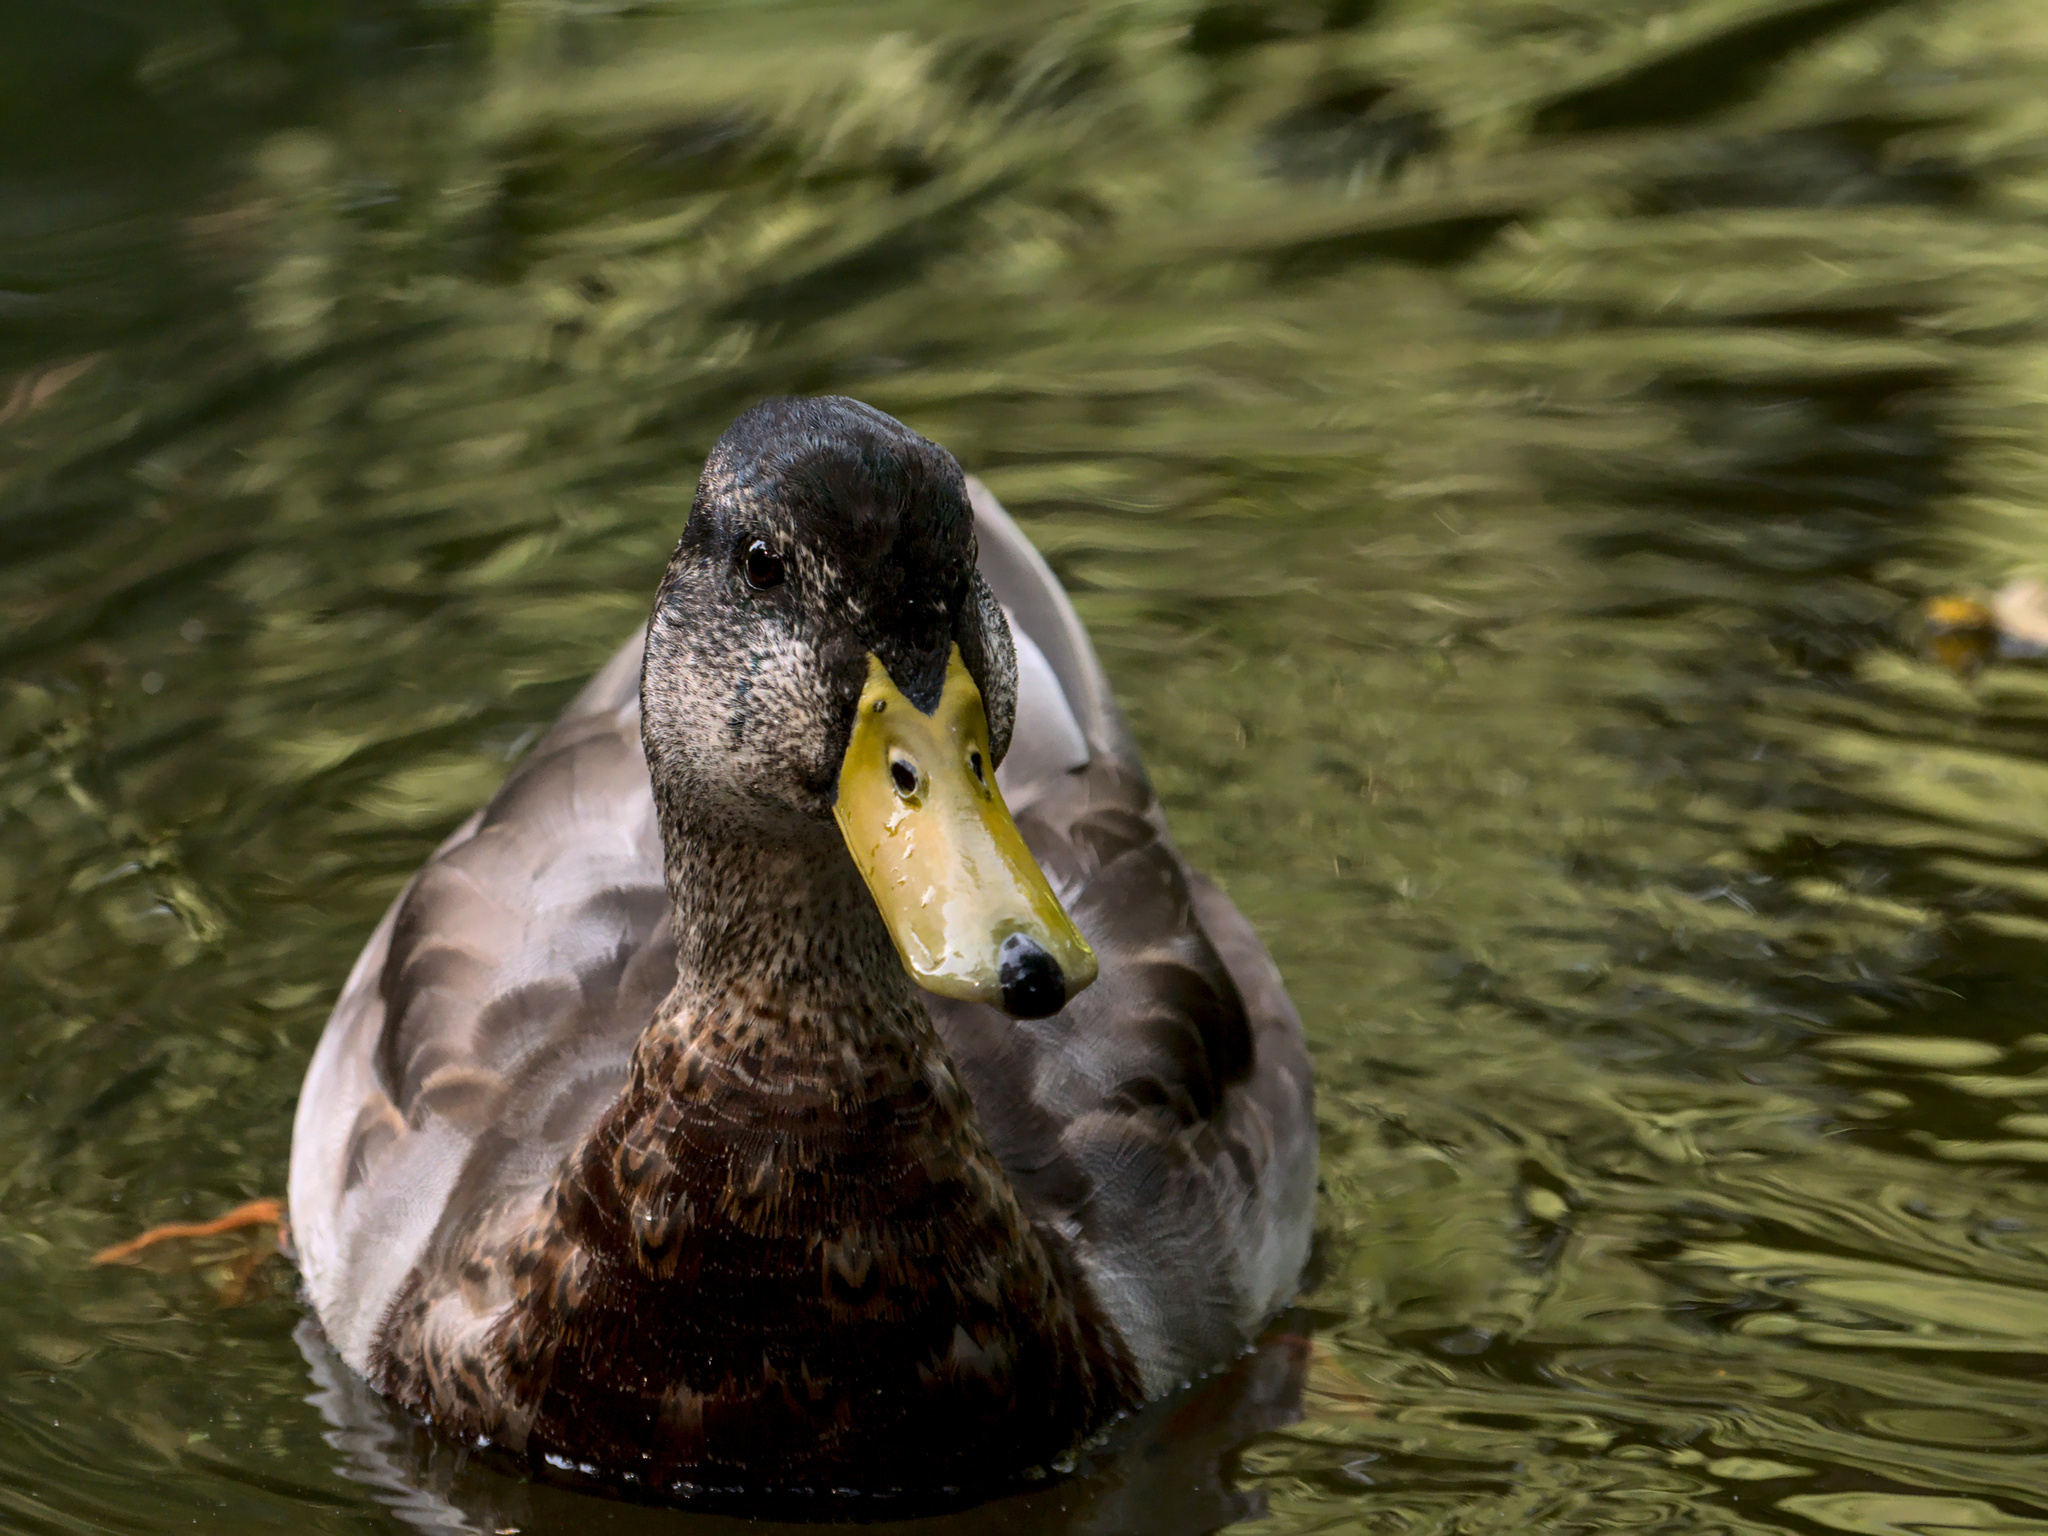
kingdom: Animalia
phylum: Chordata
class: Aves
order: Anseriformes
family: Anatidae
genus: Anas
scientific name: Anas platyrhynchos
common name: Mallard
